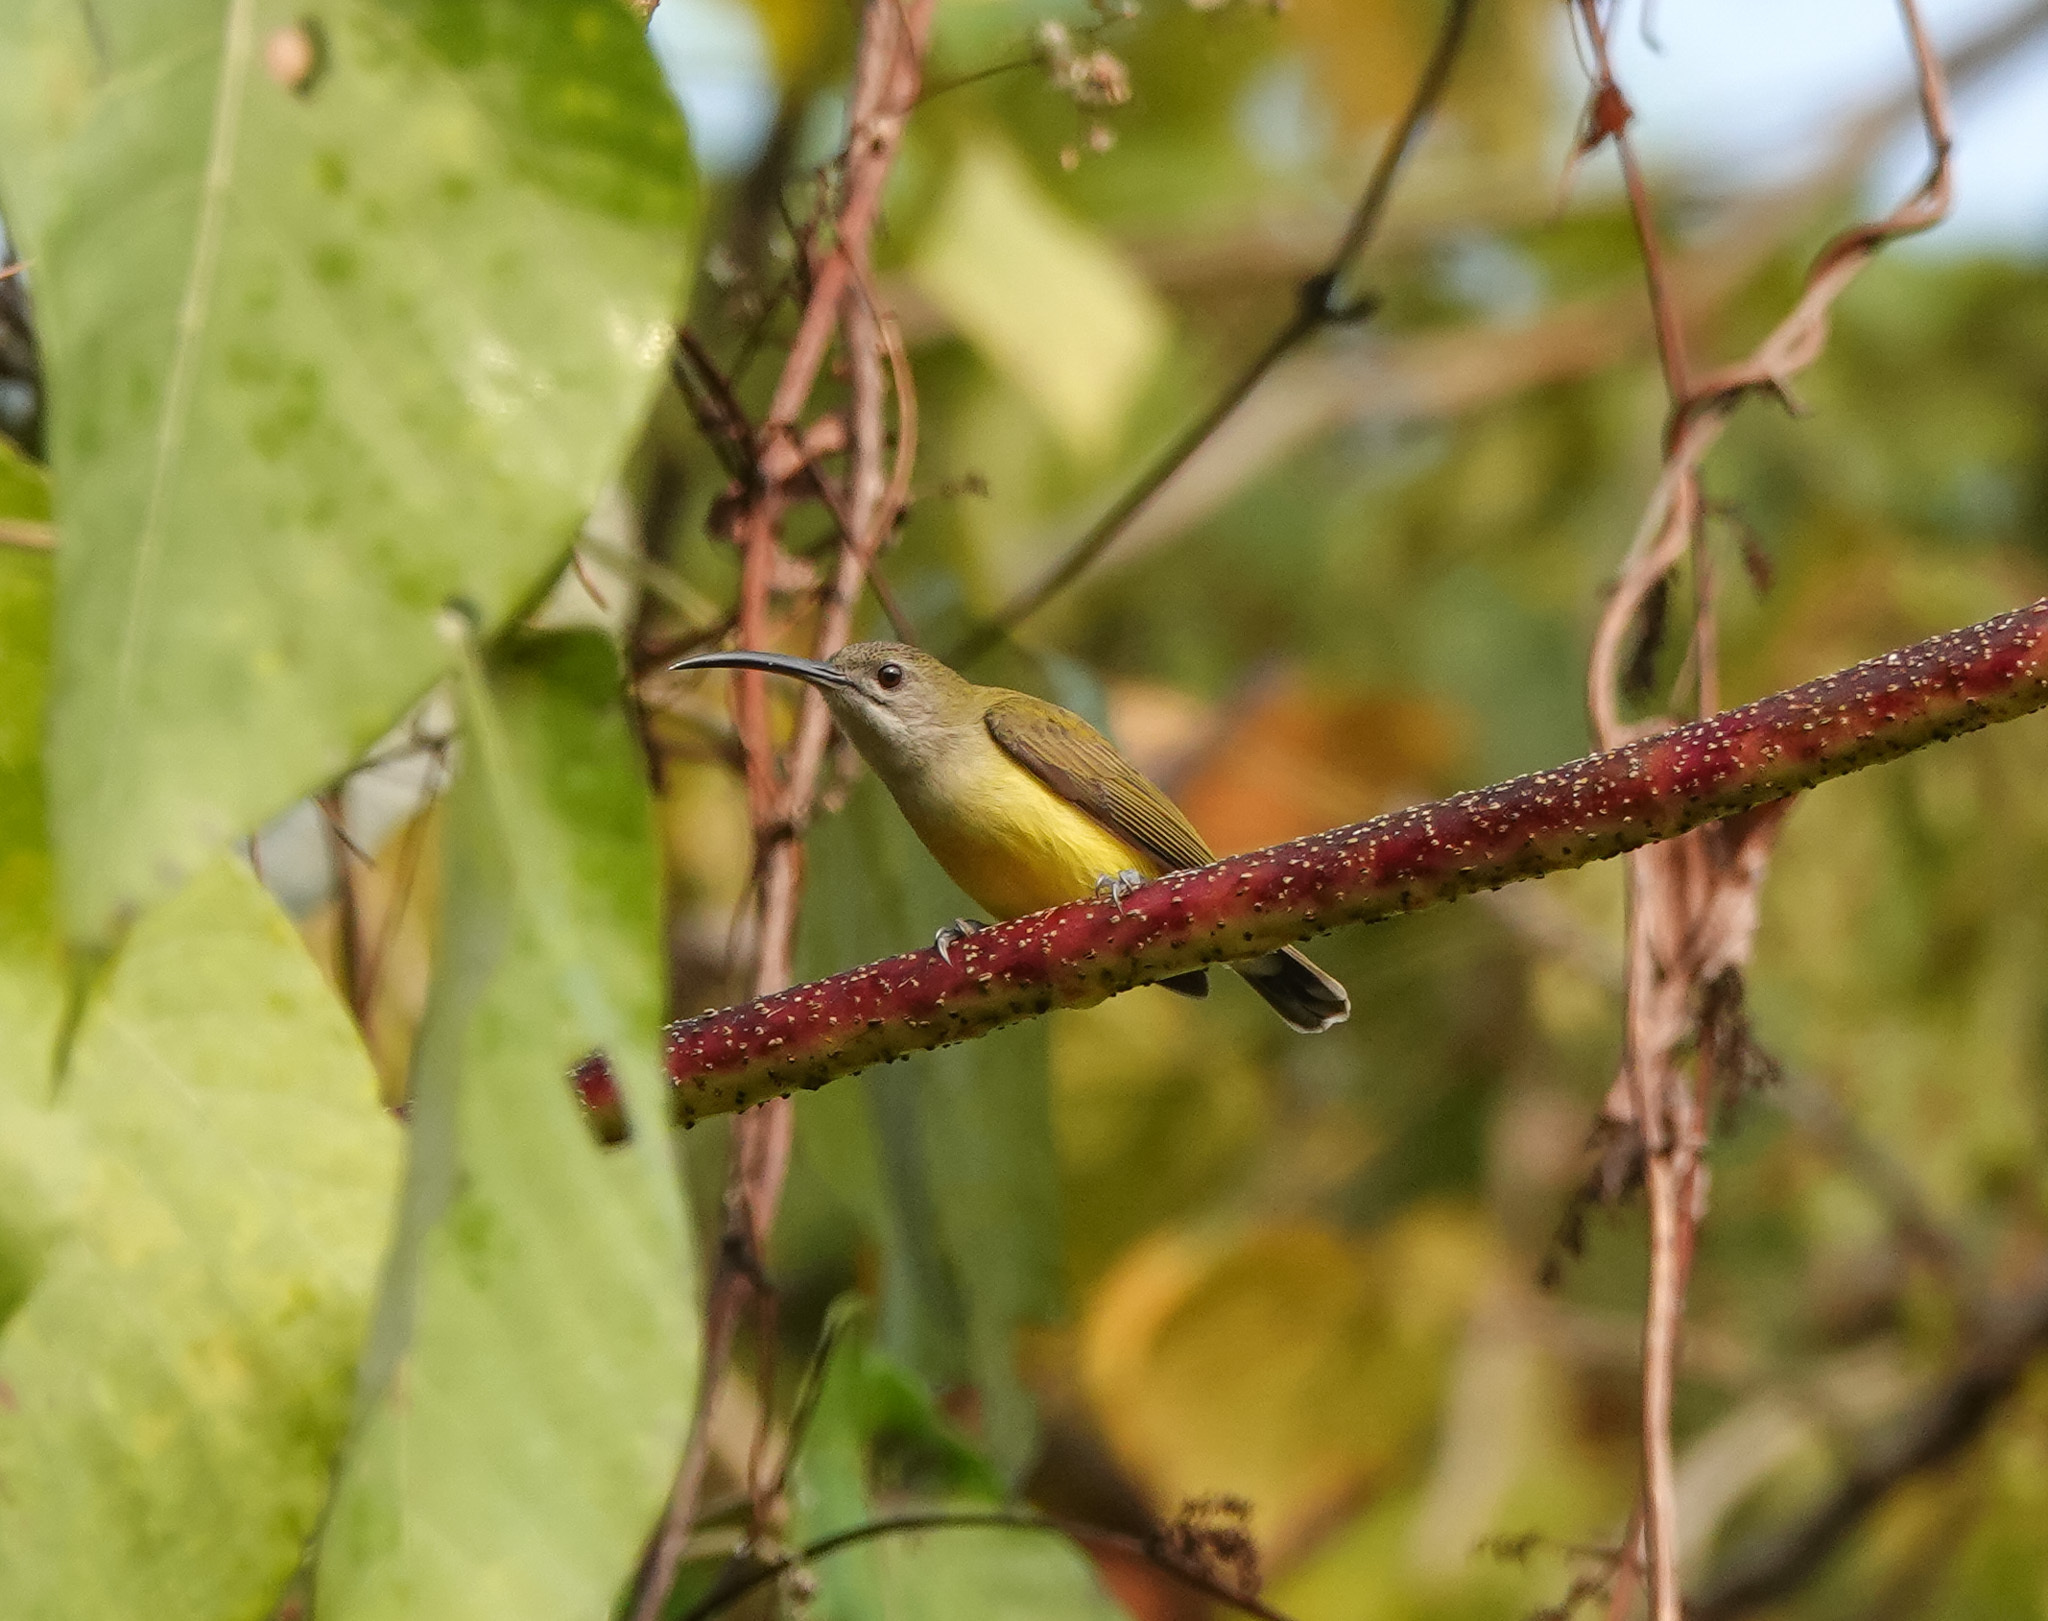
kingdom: Animalia
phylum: Chordata
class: Aves
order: Passeriformes
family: Nectariniidae
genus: Arachnothera
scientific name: Arachnothera longirostra
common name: Little spiderhunter
